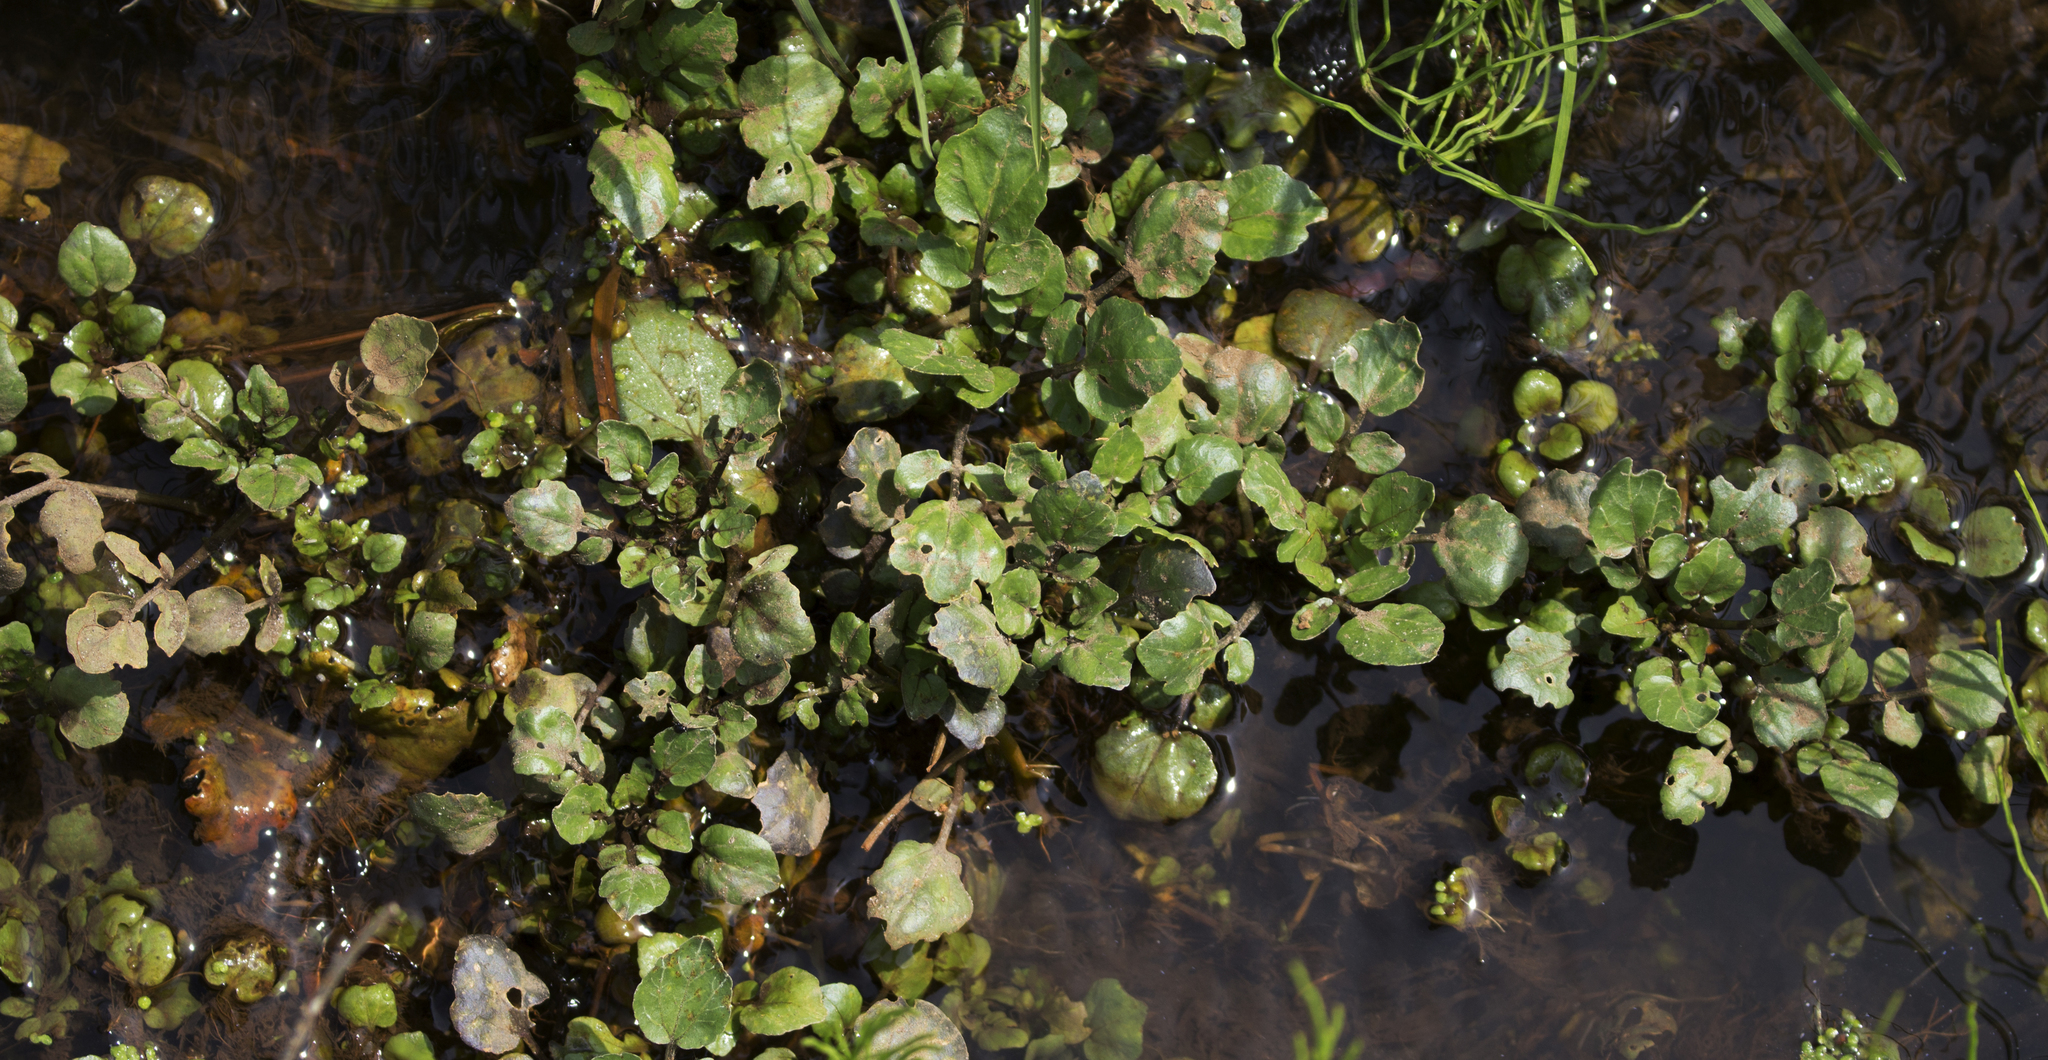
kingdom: Plantae
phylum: Tracheophyta
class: Magnoliopsida
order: Brassicales
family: Brassicaceae
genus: Nasturtium
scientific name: Nasturtium officinale
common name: Watercress
